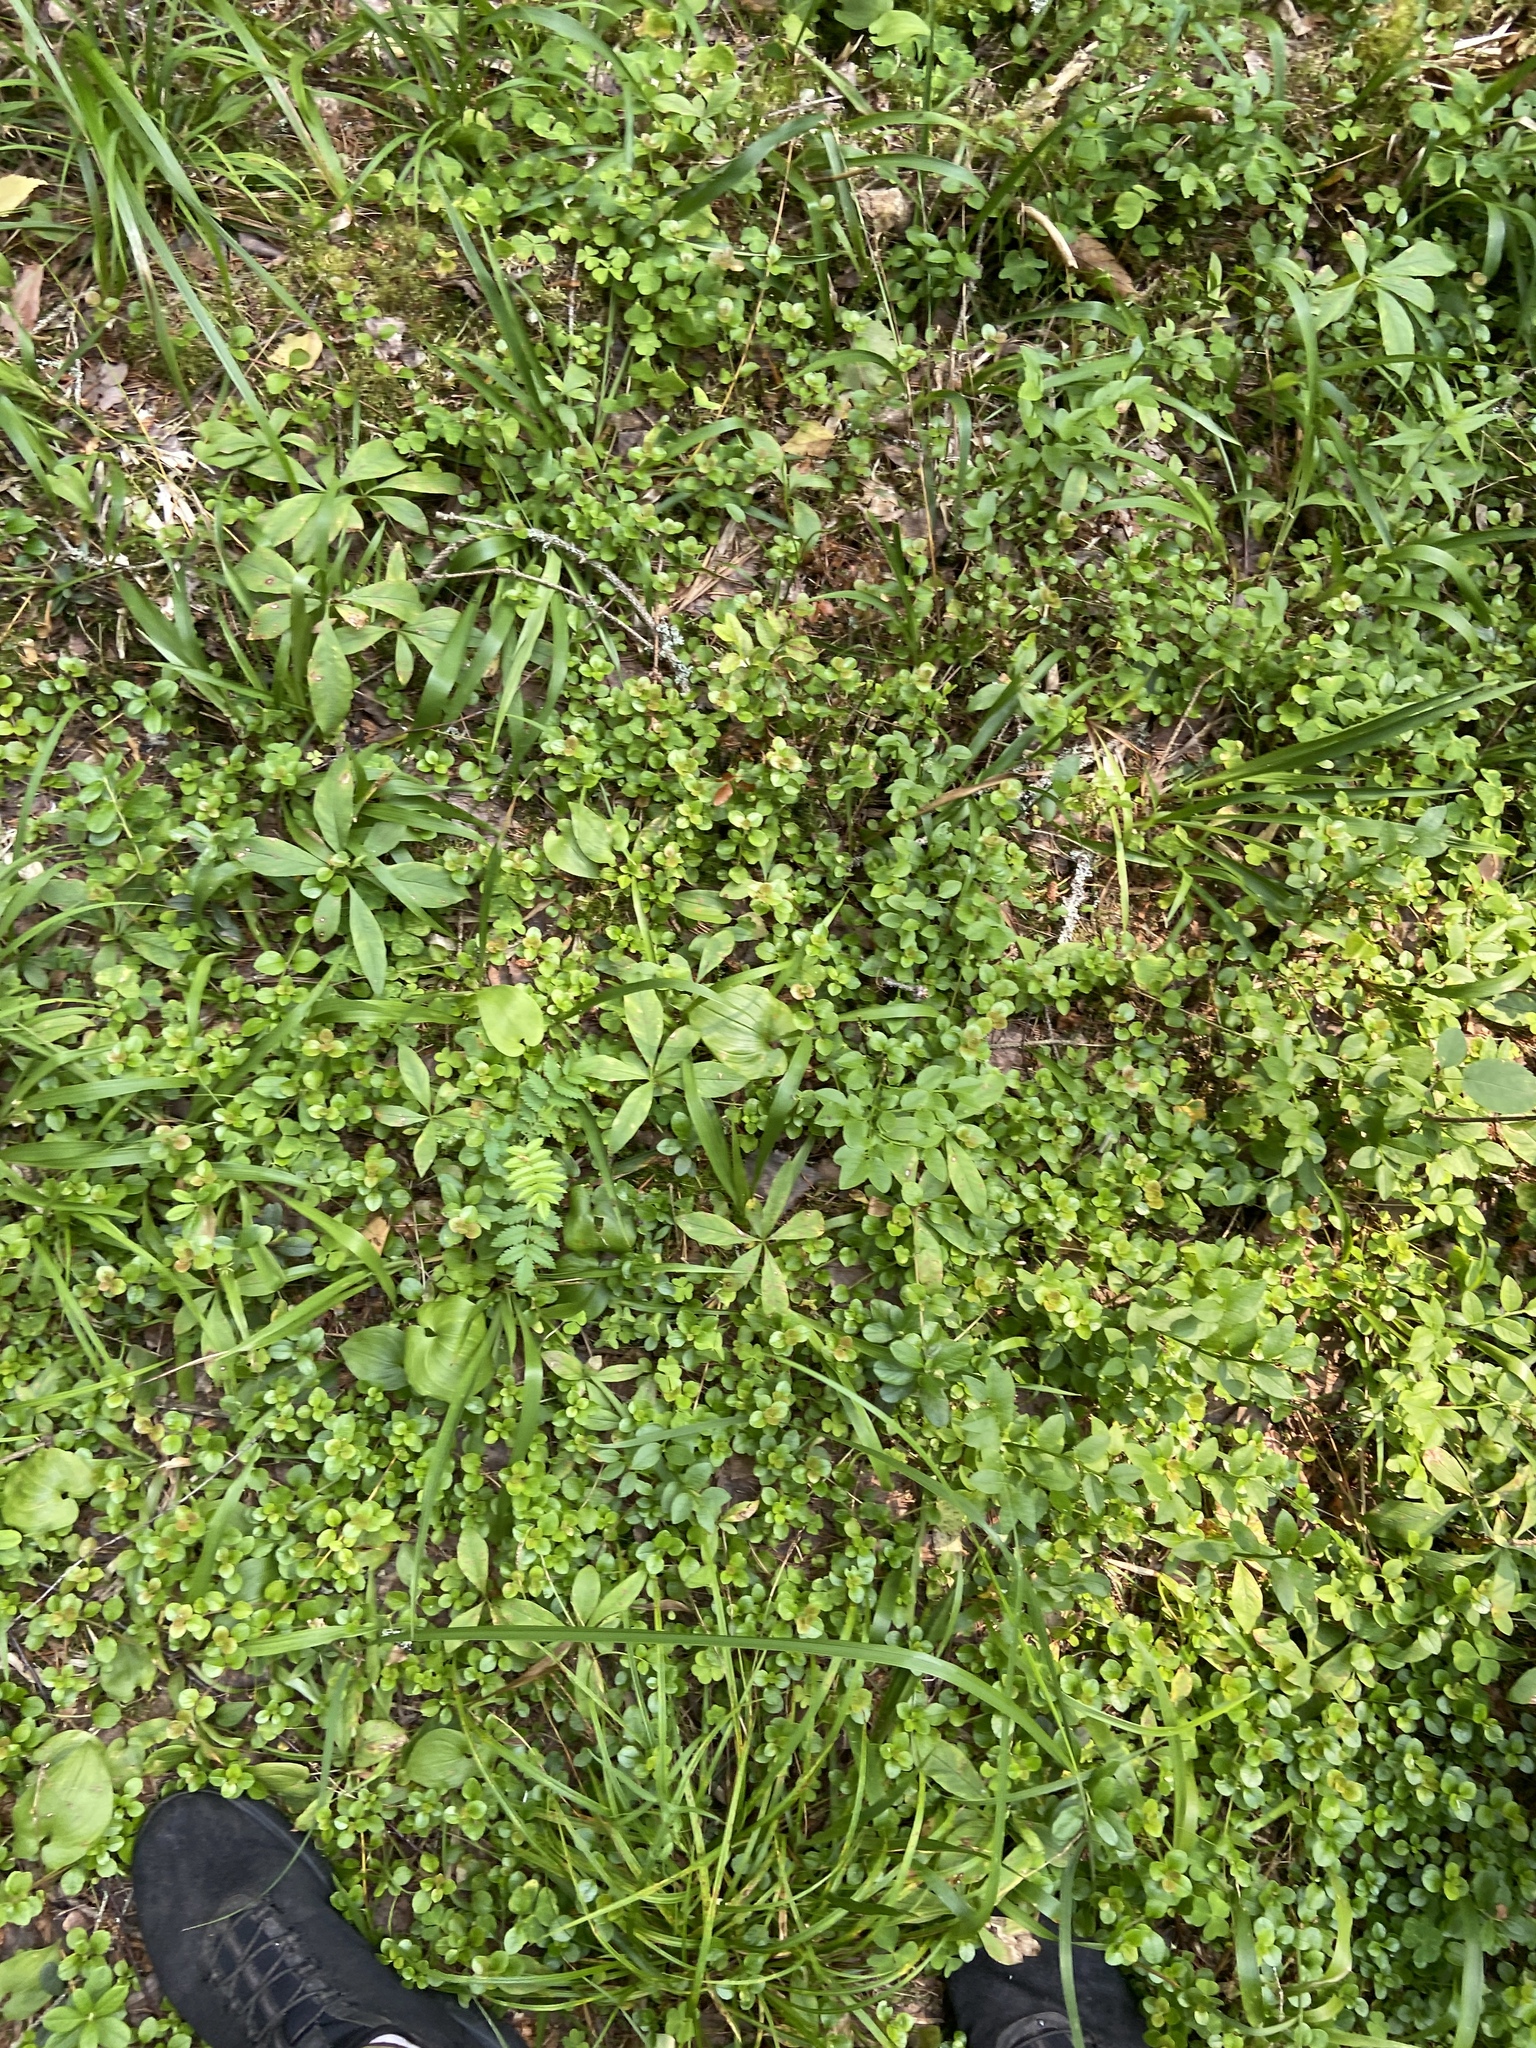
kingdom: Plantae
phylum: Tracheophyta
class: Magnoliopsida
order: Ericales
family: Primulaceae
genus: Lysimachia
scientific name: Lysimachia europaea
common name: Arctic starflower
